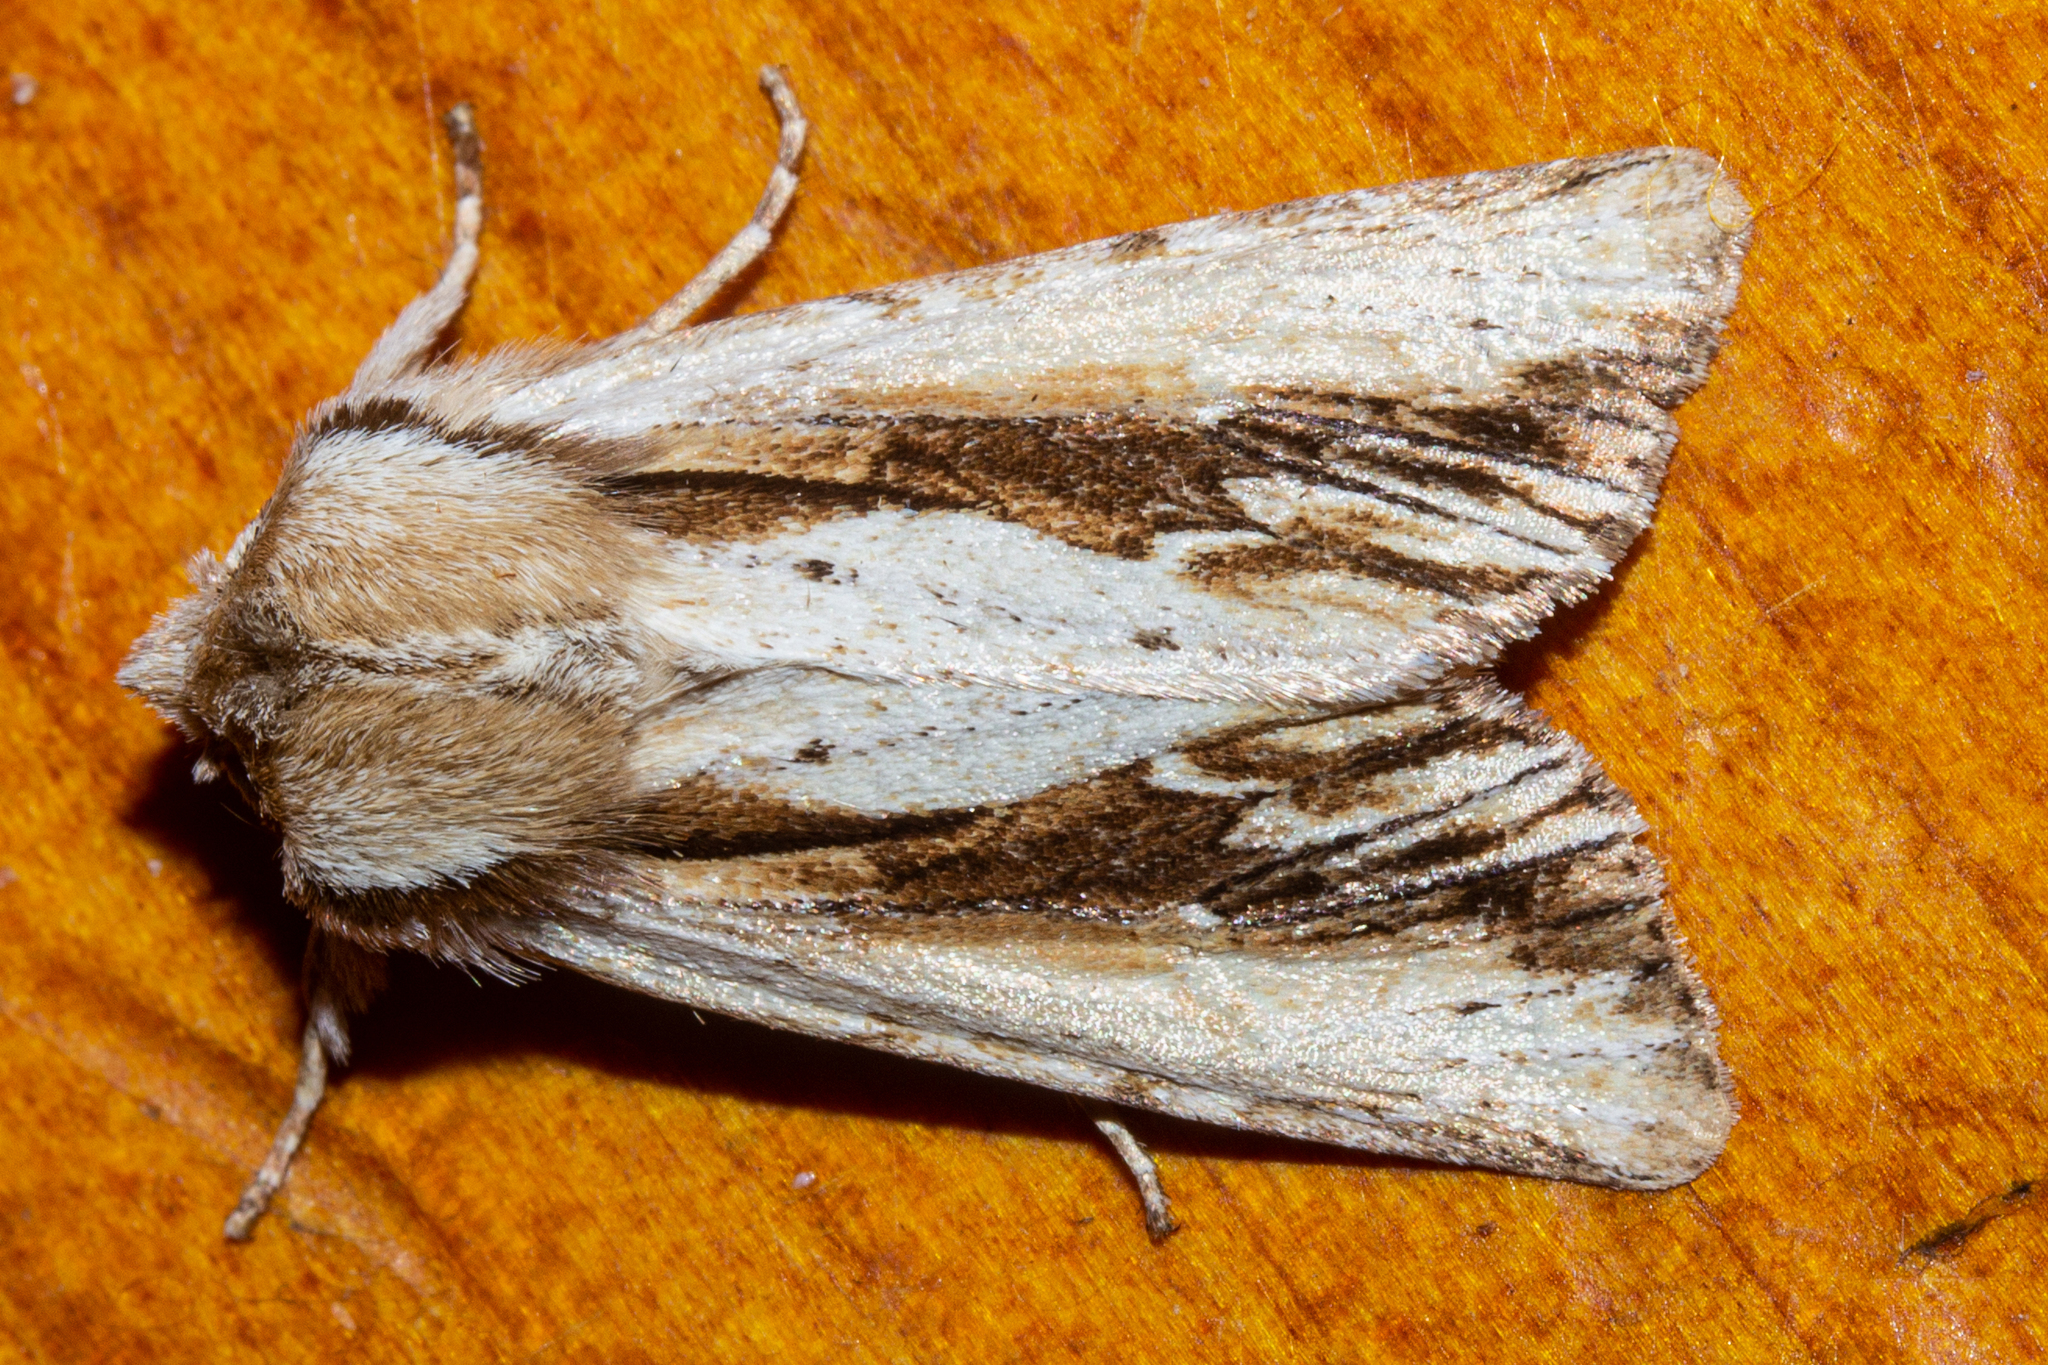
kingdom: Animalia
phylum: Arthropoda
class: Insecta
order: Lepidoptera
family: Noctuidae
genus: Ichneutica
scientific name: Ichneutica
